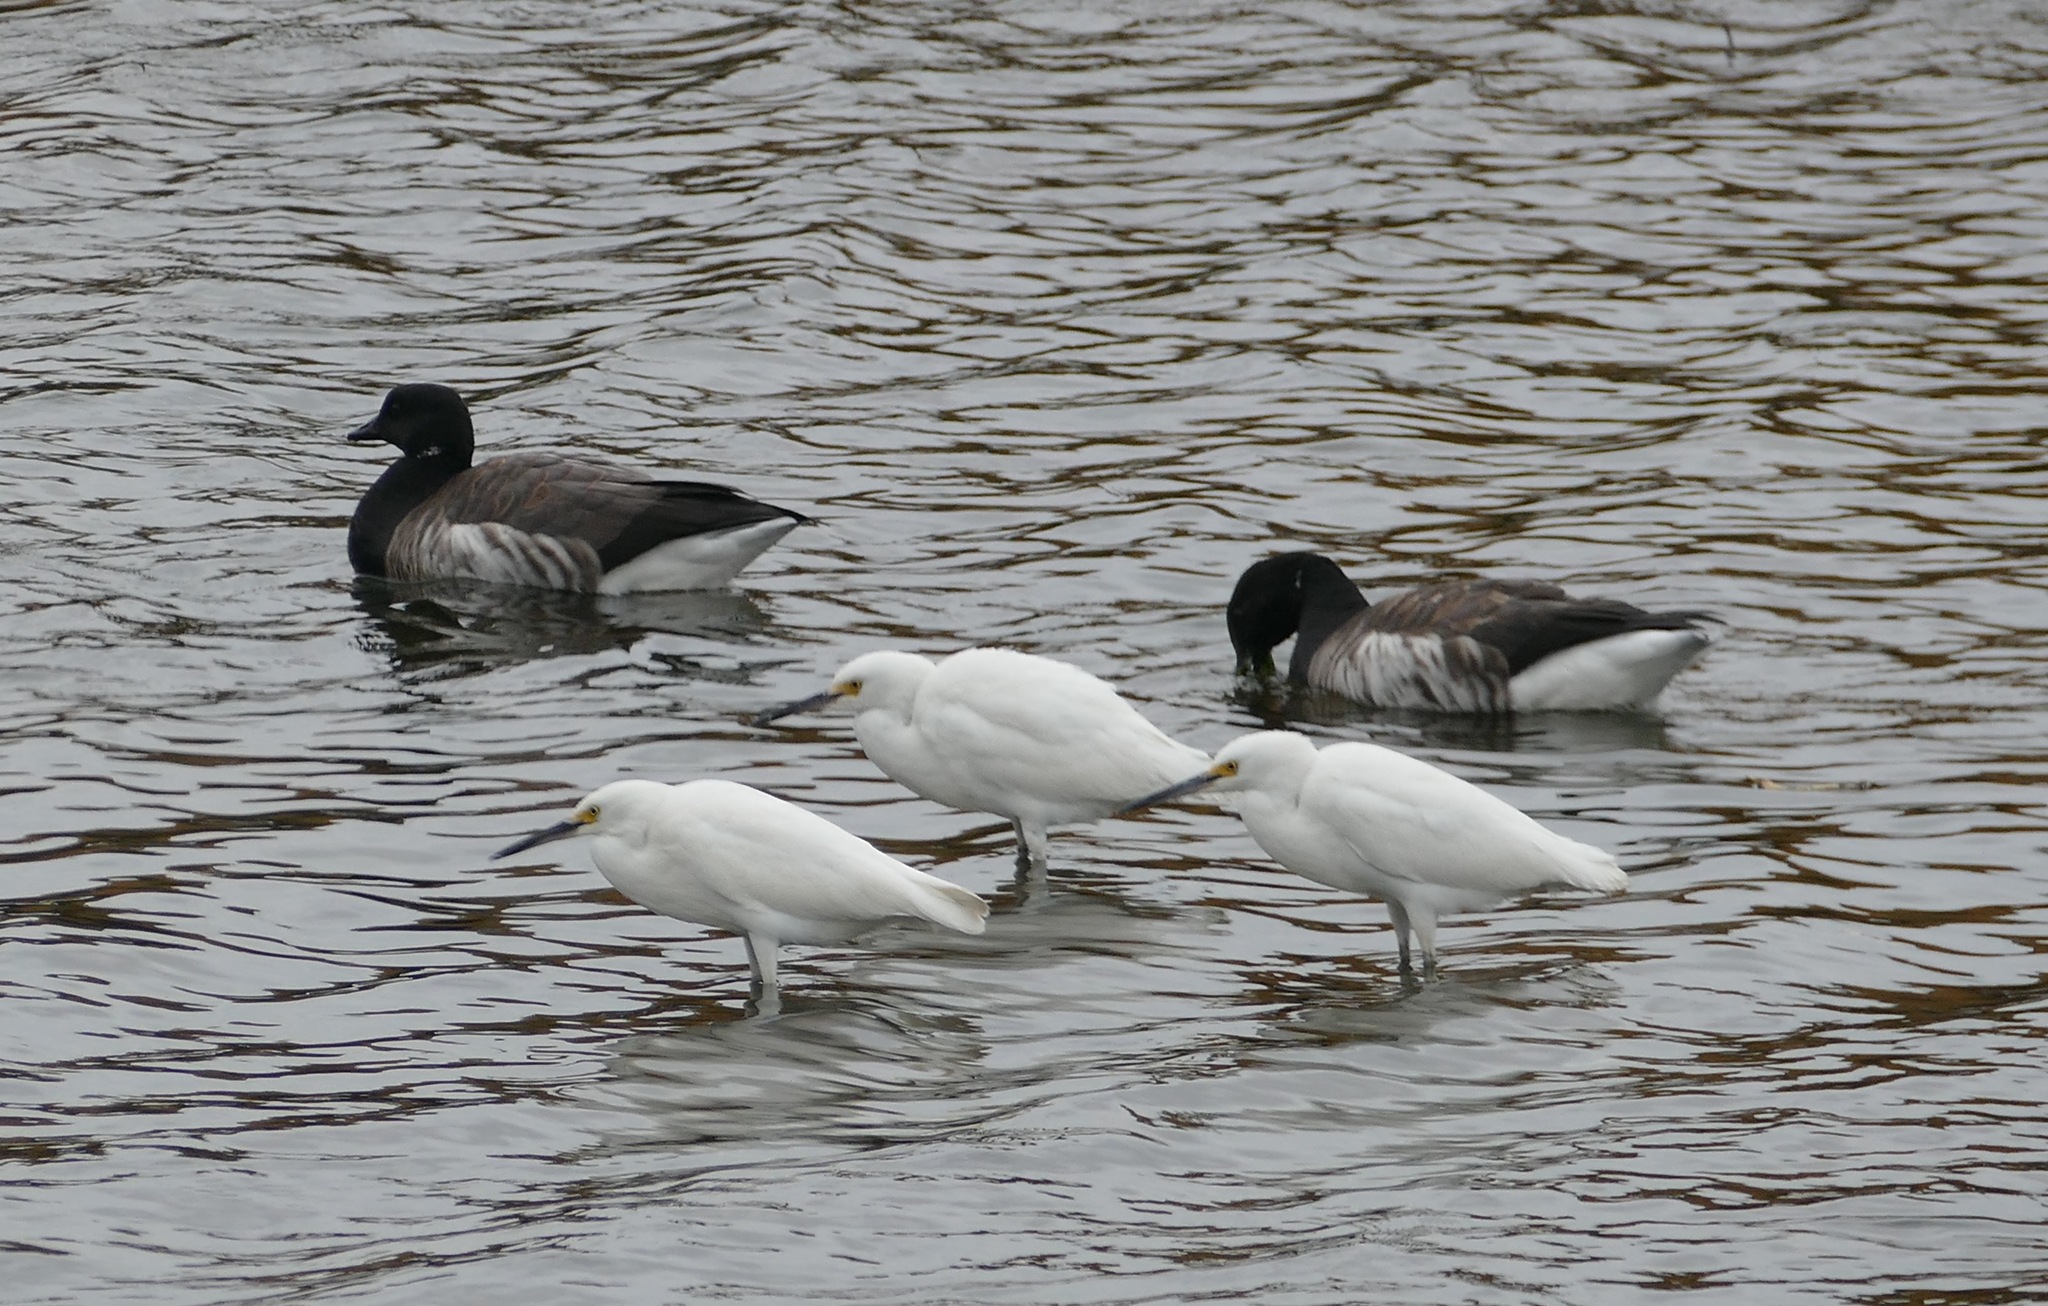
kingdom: Animalia
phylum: Chordata
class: Aves
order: Pelecaniformes
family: Ardeidae
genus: Egretta
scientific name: Egretta thula
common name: Snowy egret
